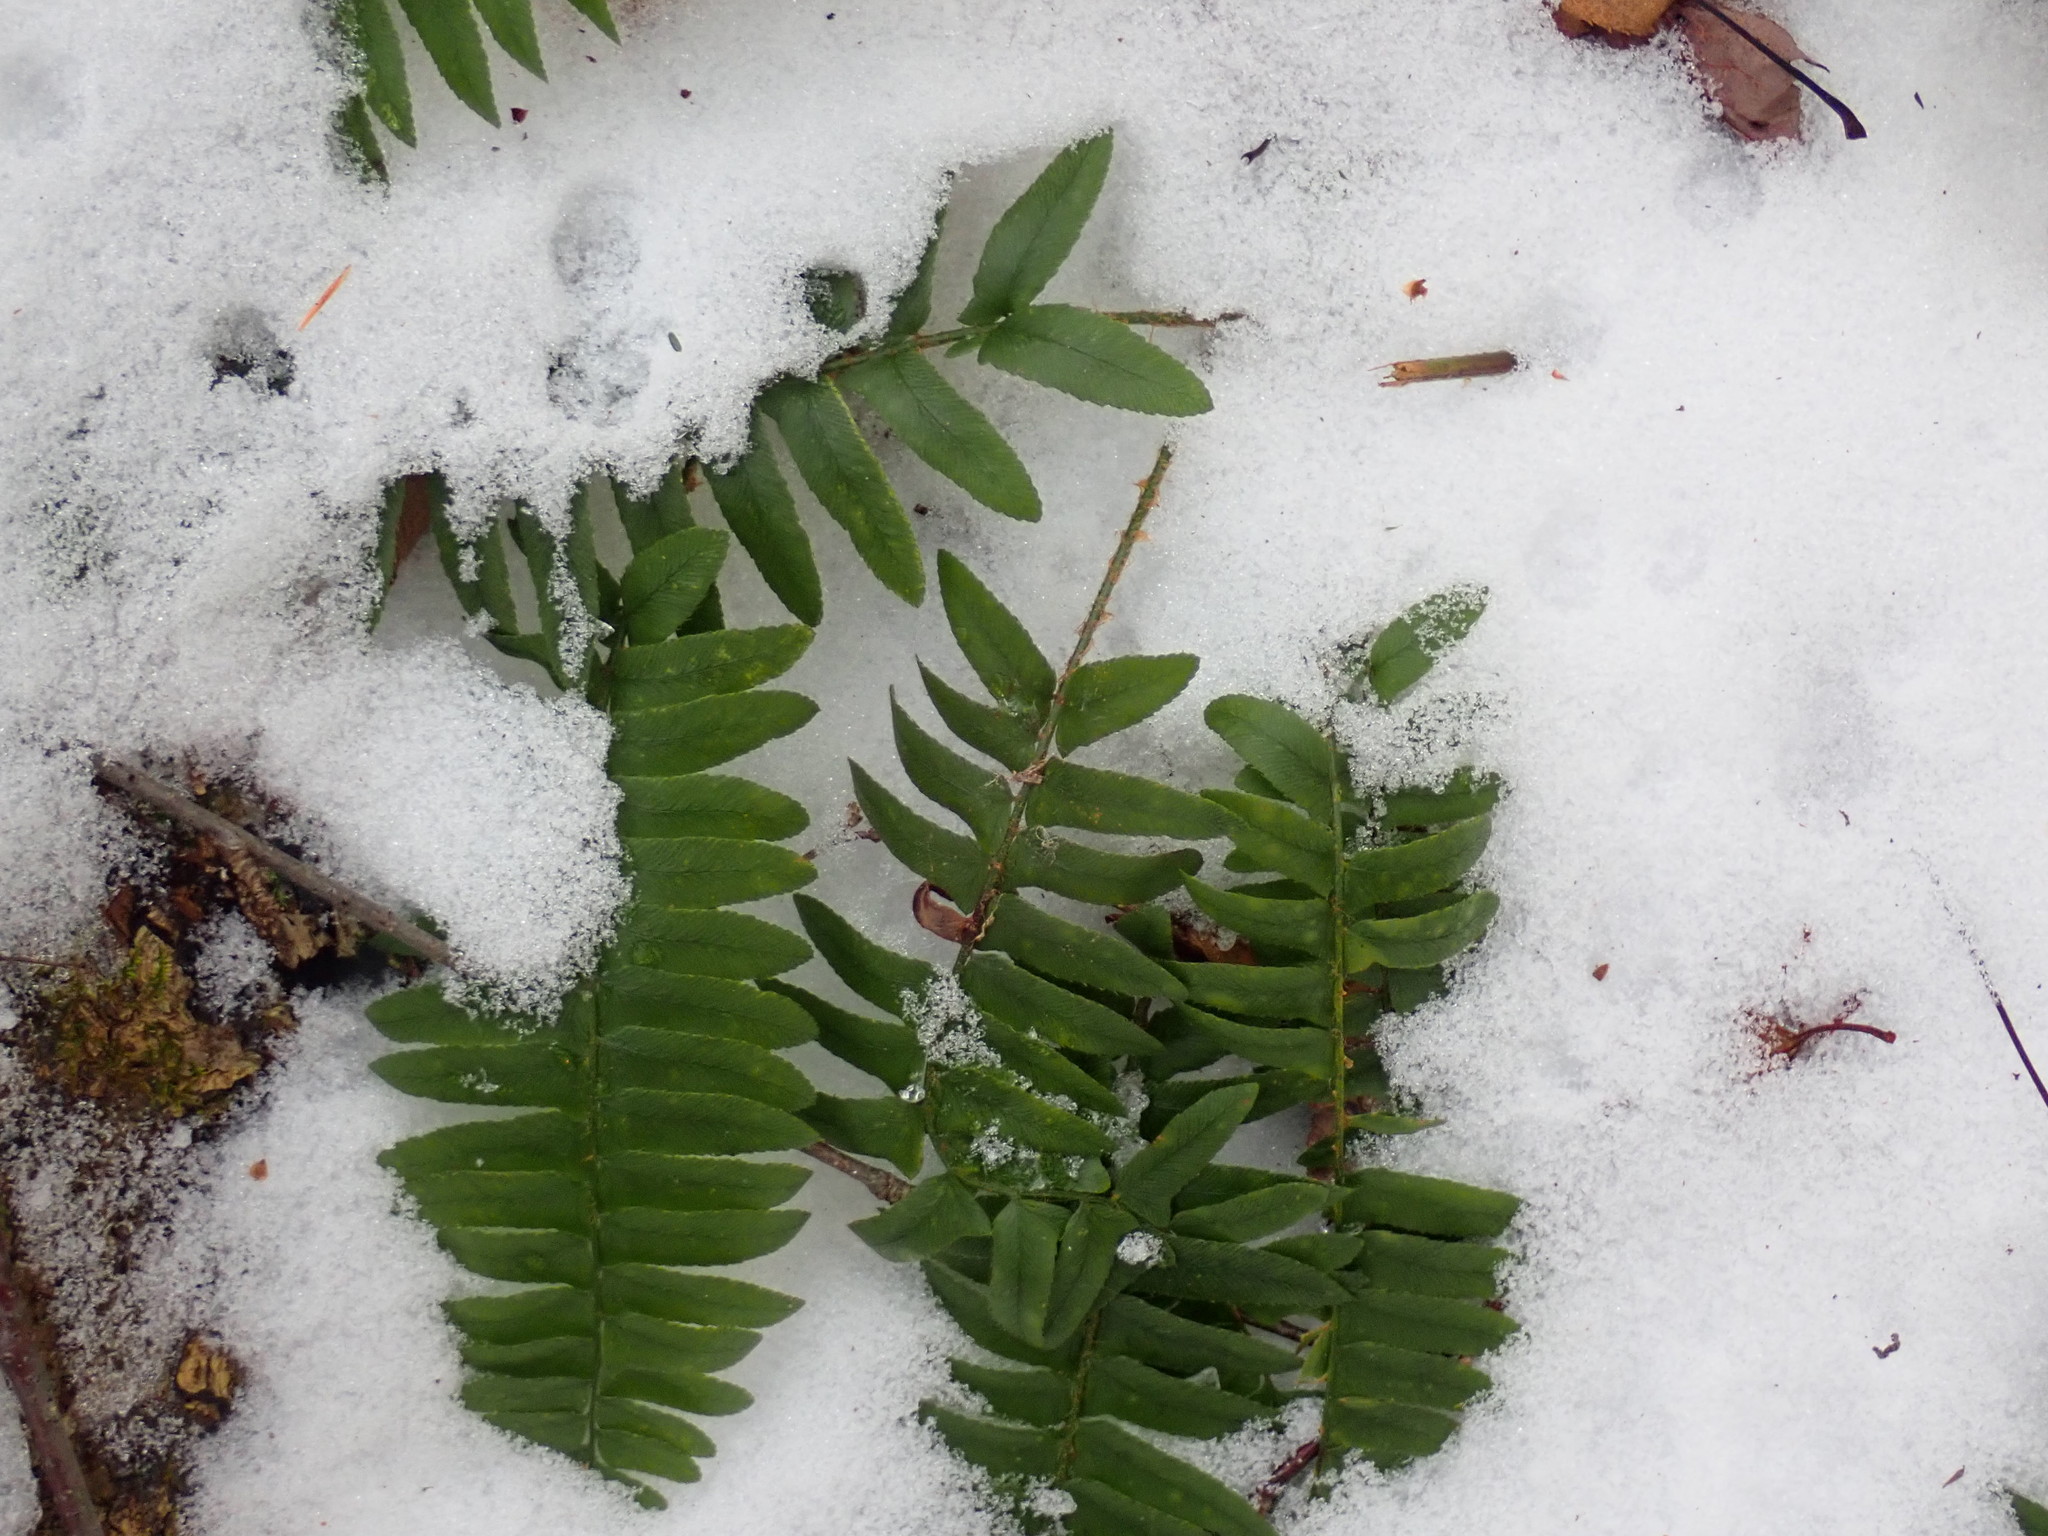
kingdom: Plantae
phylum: Tracheophyta
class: Polypodiopsida
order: Polypodiales
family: Dryopteridaceae
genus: Polystichum
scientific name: Polystichum acrostichoides
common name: Christmas fern
